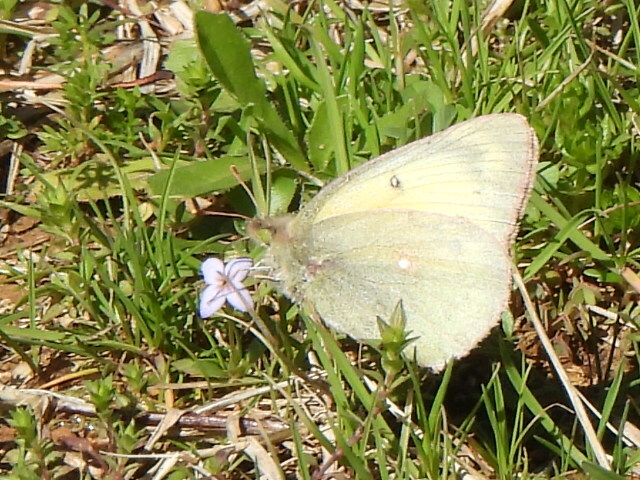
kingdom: Animalia
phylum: Arthropoda
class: Insecta
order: Lepidoptera
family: Pieridae
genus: Colias
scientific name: Colias eurytheme
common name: Alfalfa butterfly
